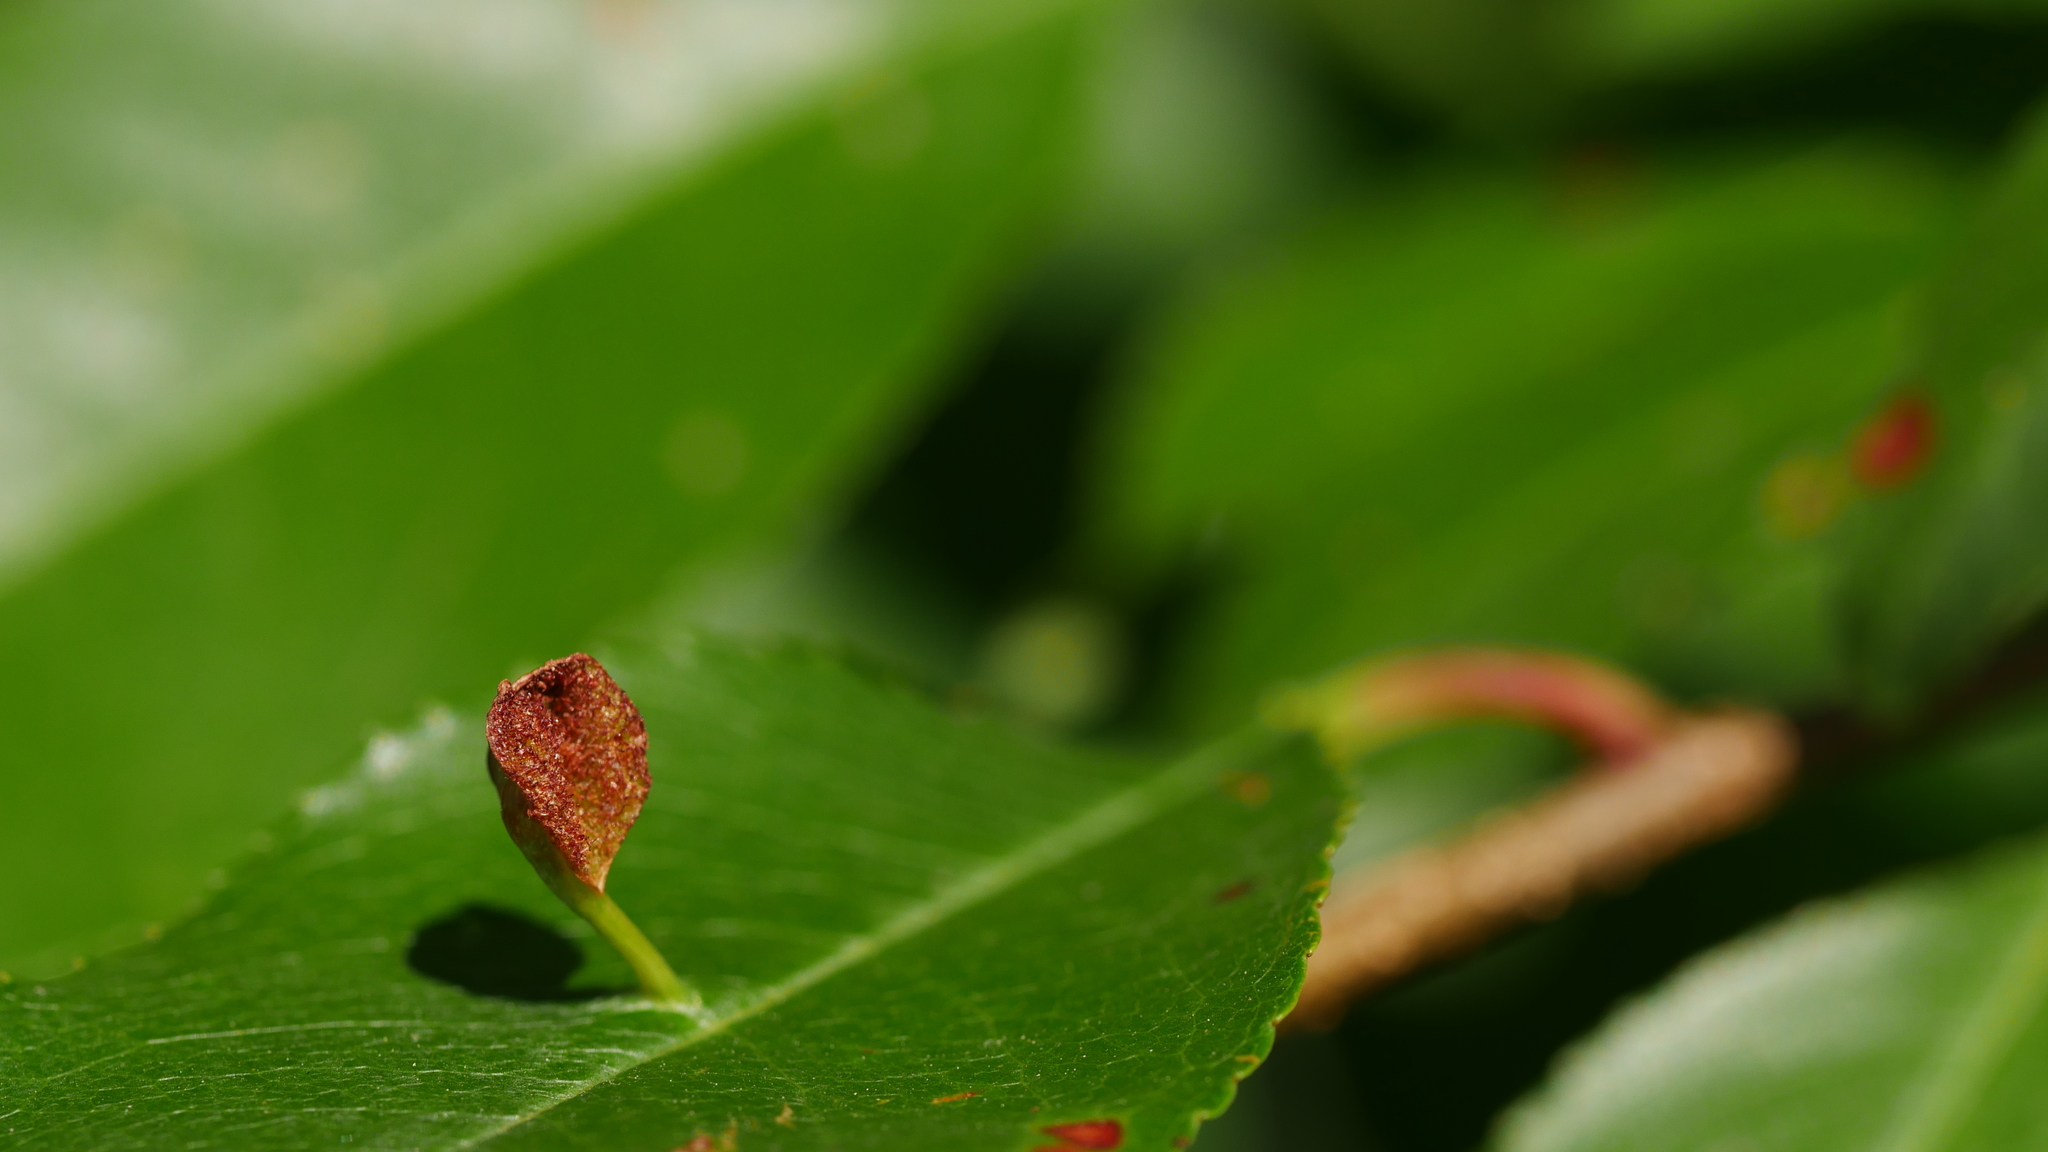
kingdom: Animalia
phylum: Arthropoda
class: Arachnida
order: Trombidiformes
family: Eriophyidae
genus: Eriophyes
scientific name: Eriophyes
